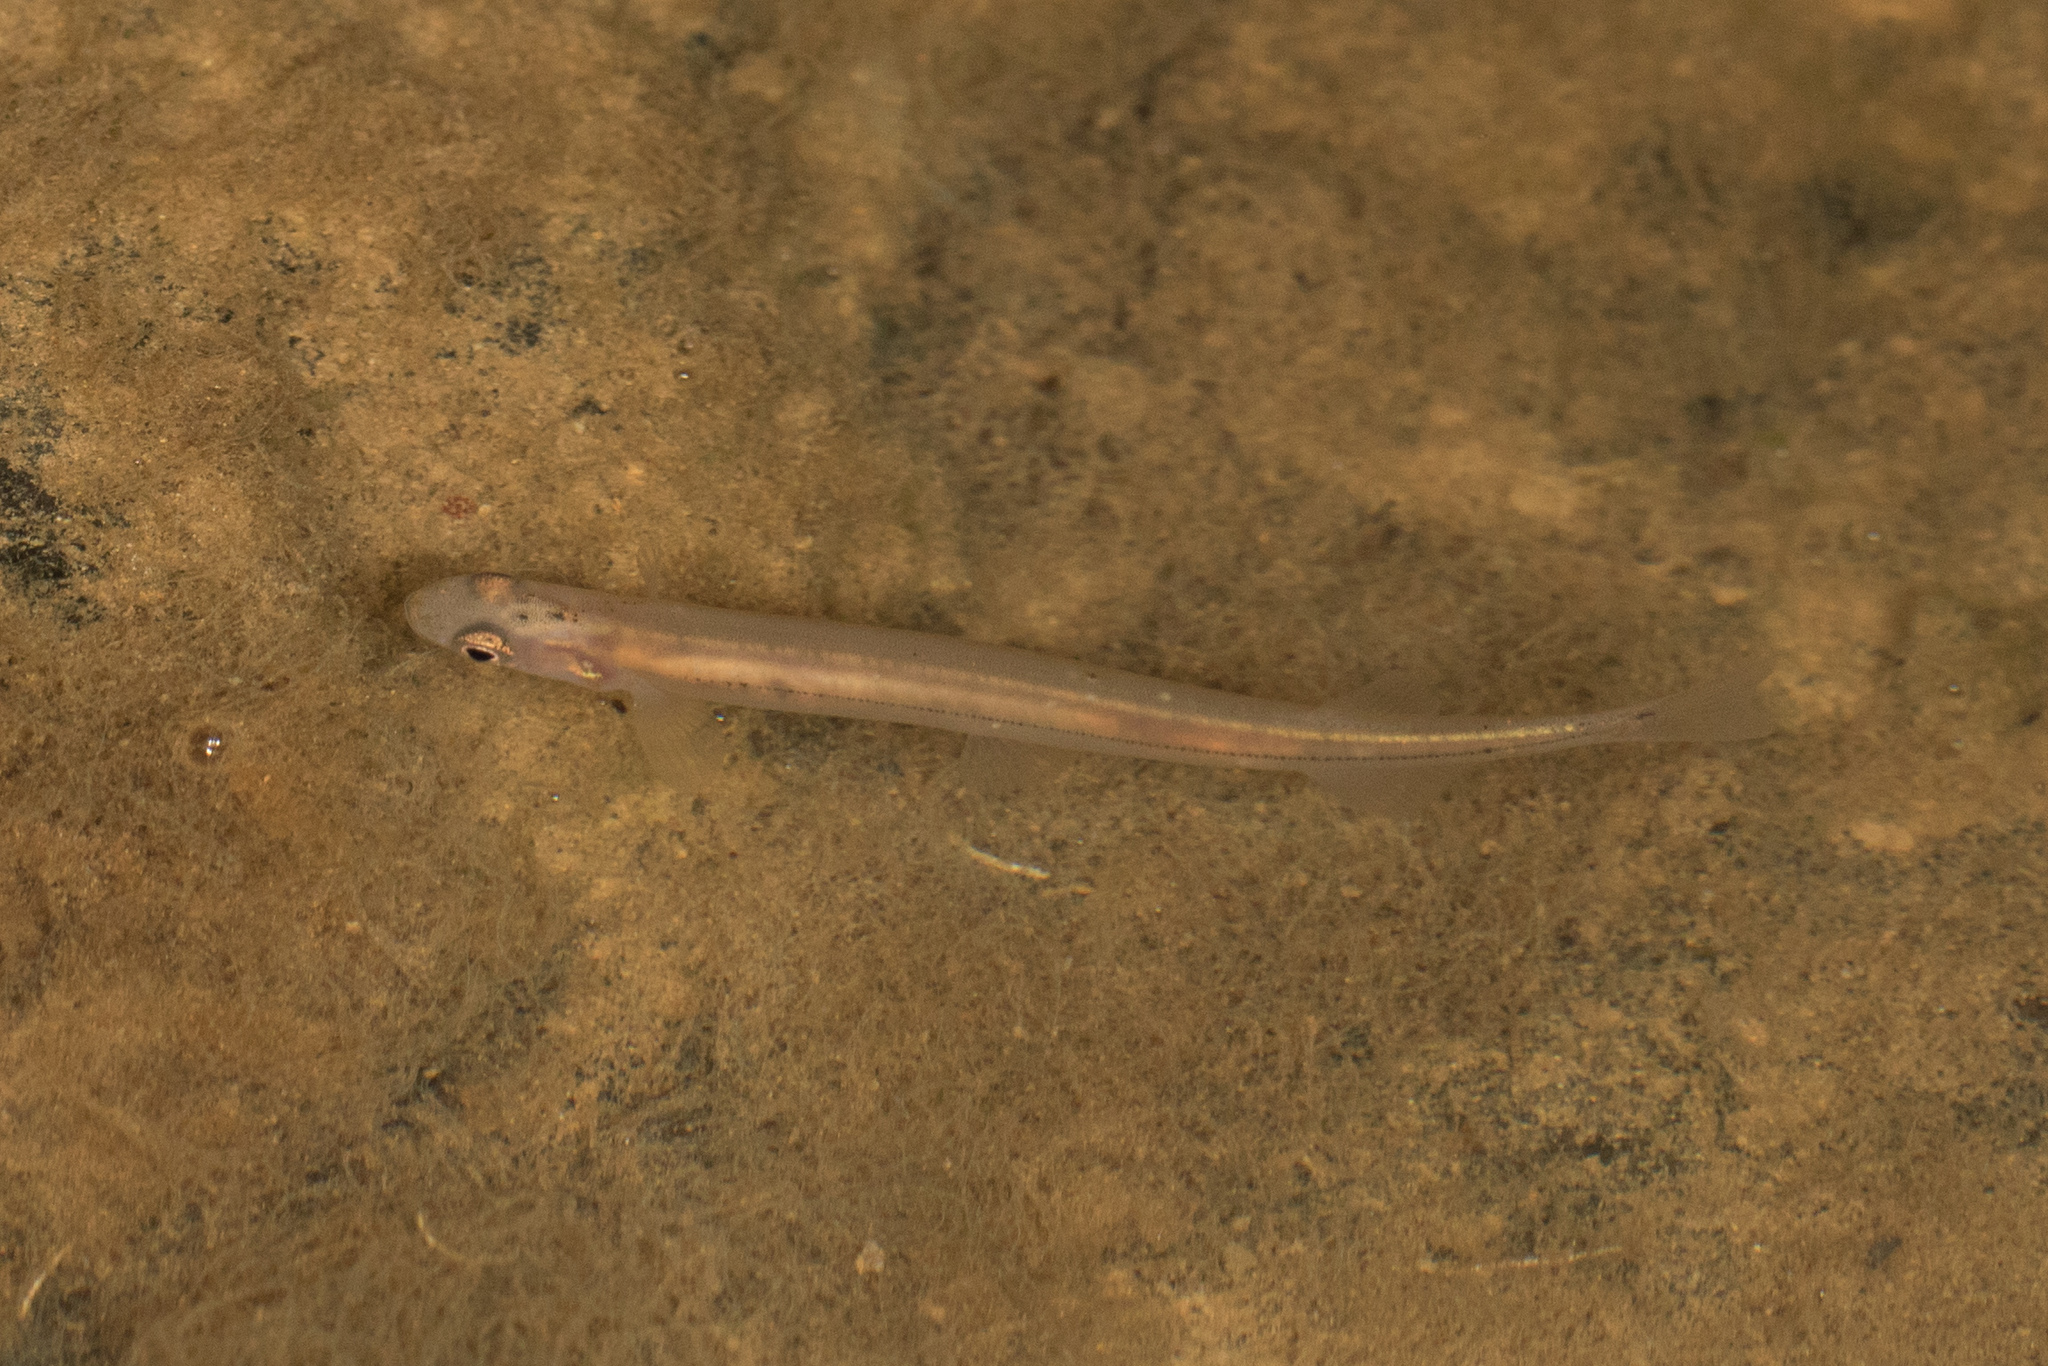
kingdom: Animalia
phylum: Chordata
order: Osmeriformes
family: Retropinnidae
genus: Retropinna
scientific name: Retropinna retropinna
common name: Common smelt
